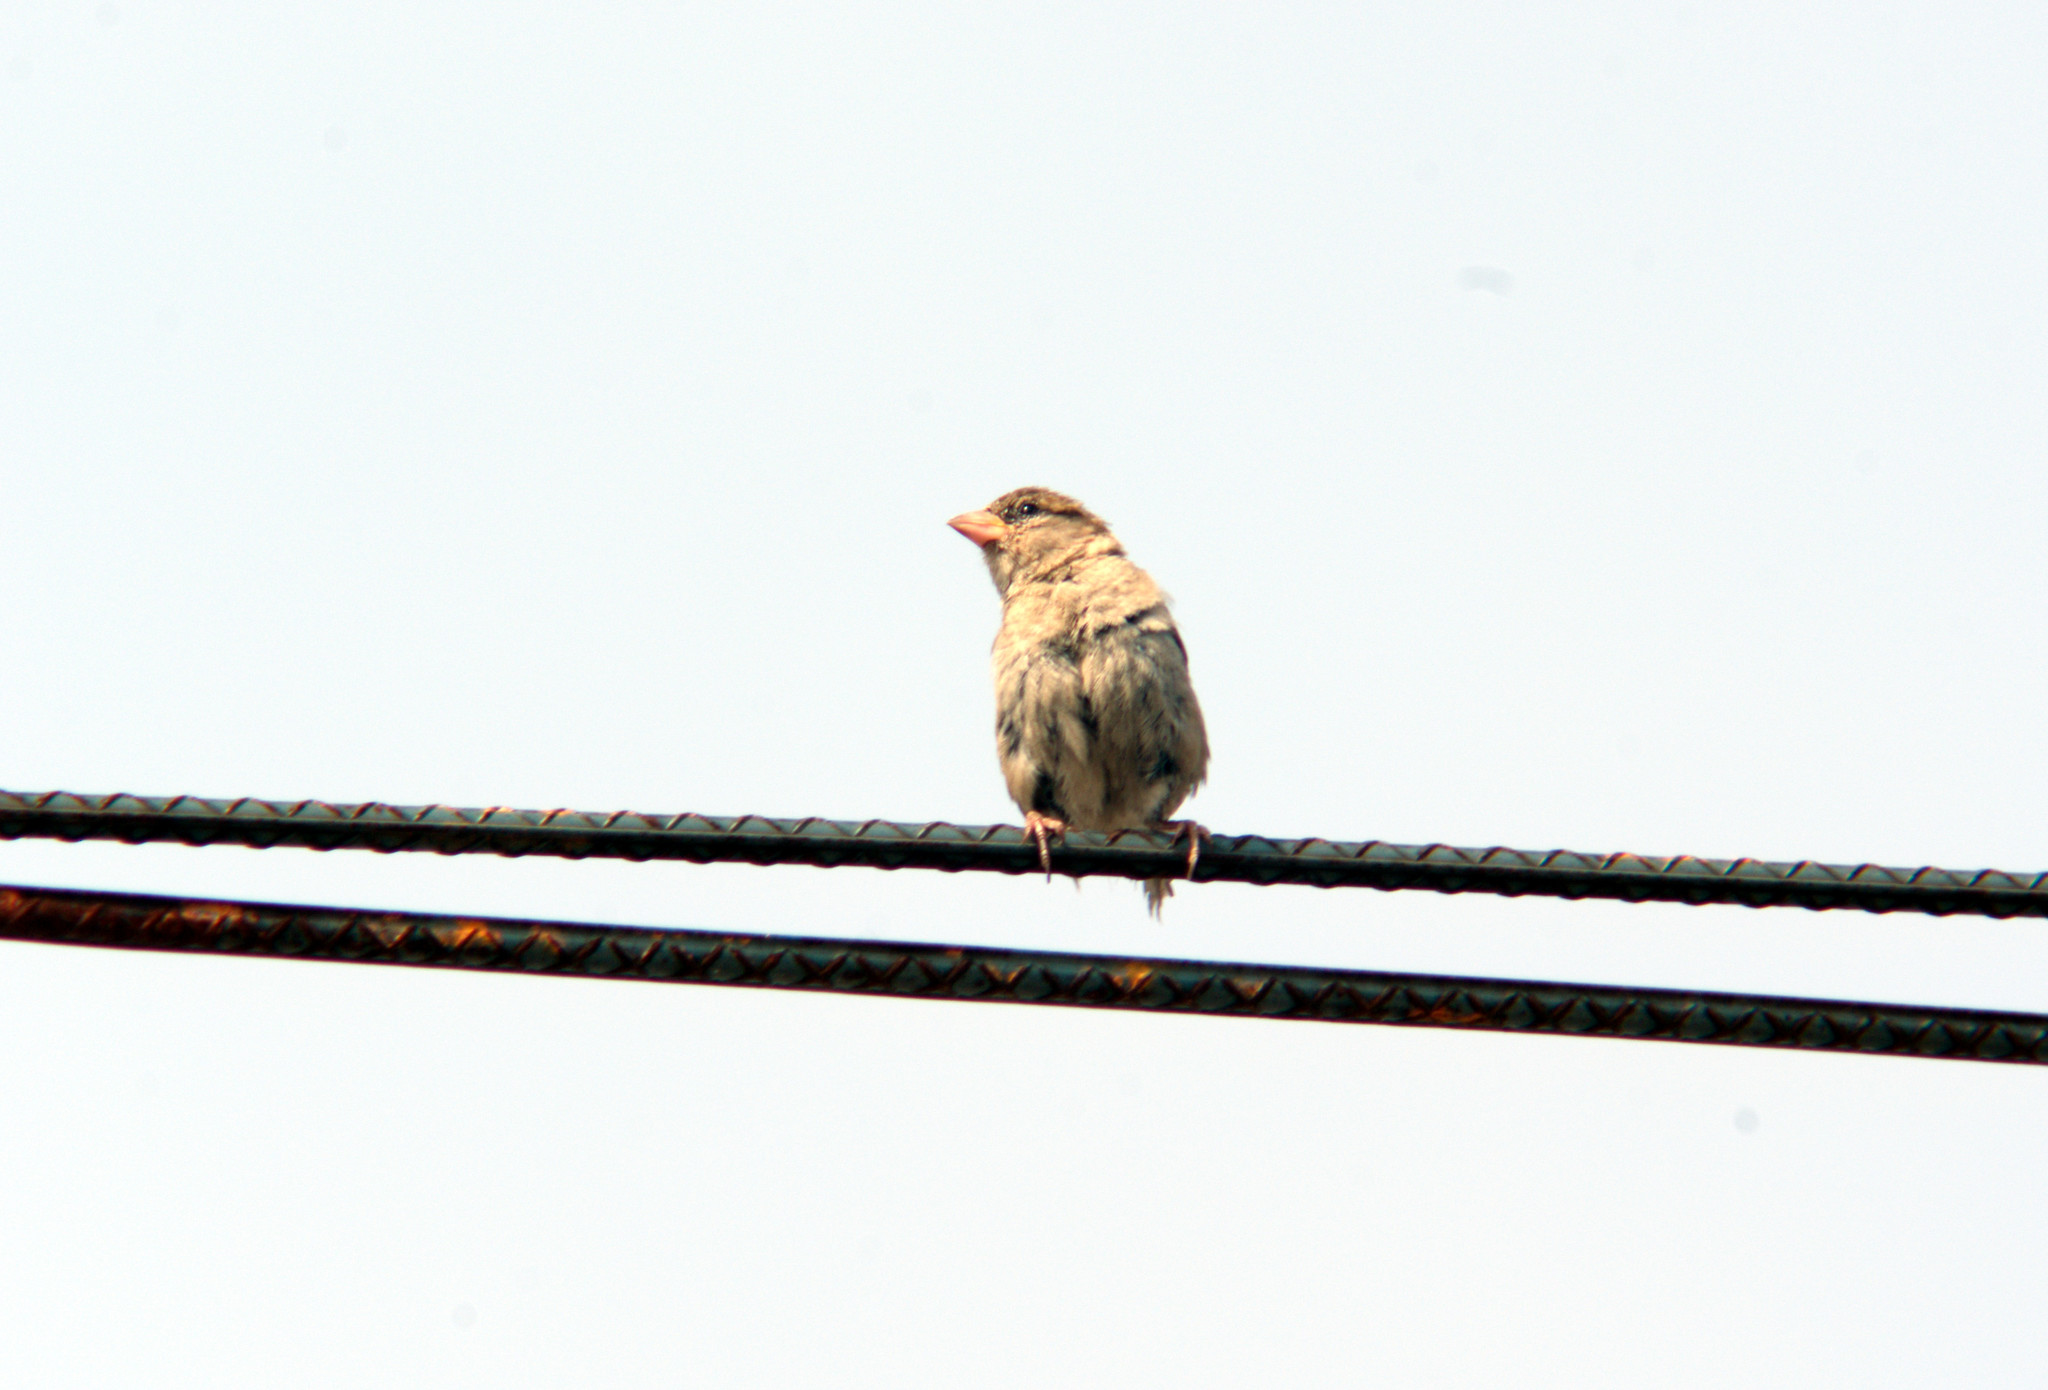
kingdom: Animalia
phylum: Chordata
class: Aves
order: Passeriformes
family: Passeridae
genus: Passer
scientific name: Passer domesticus
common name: House sparrow
